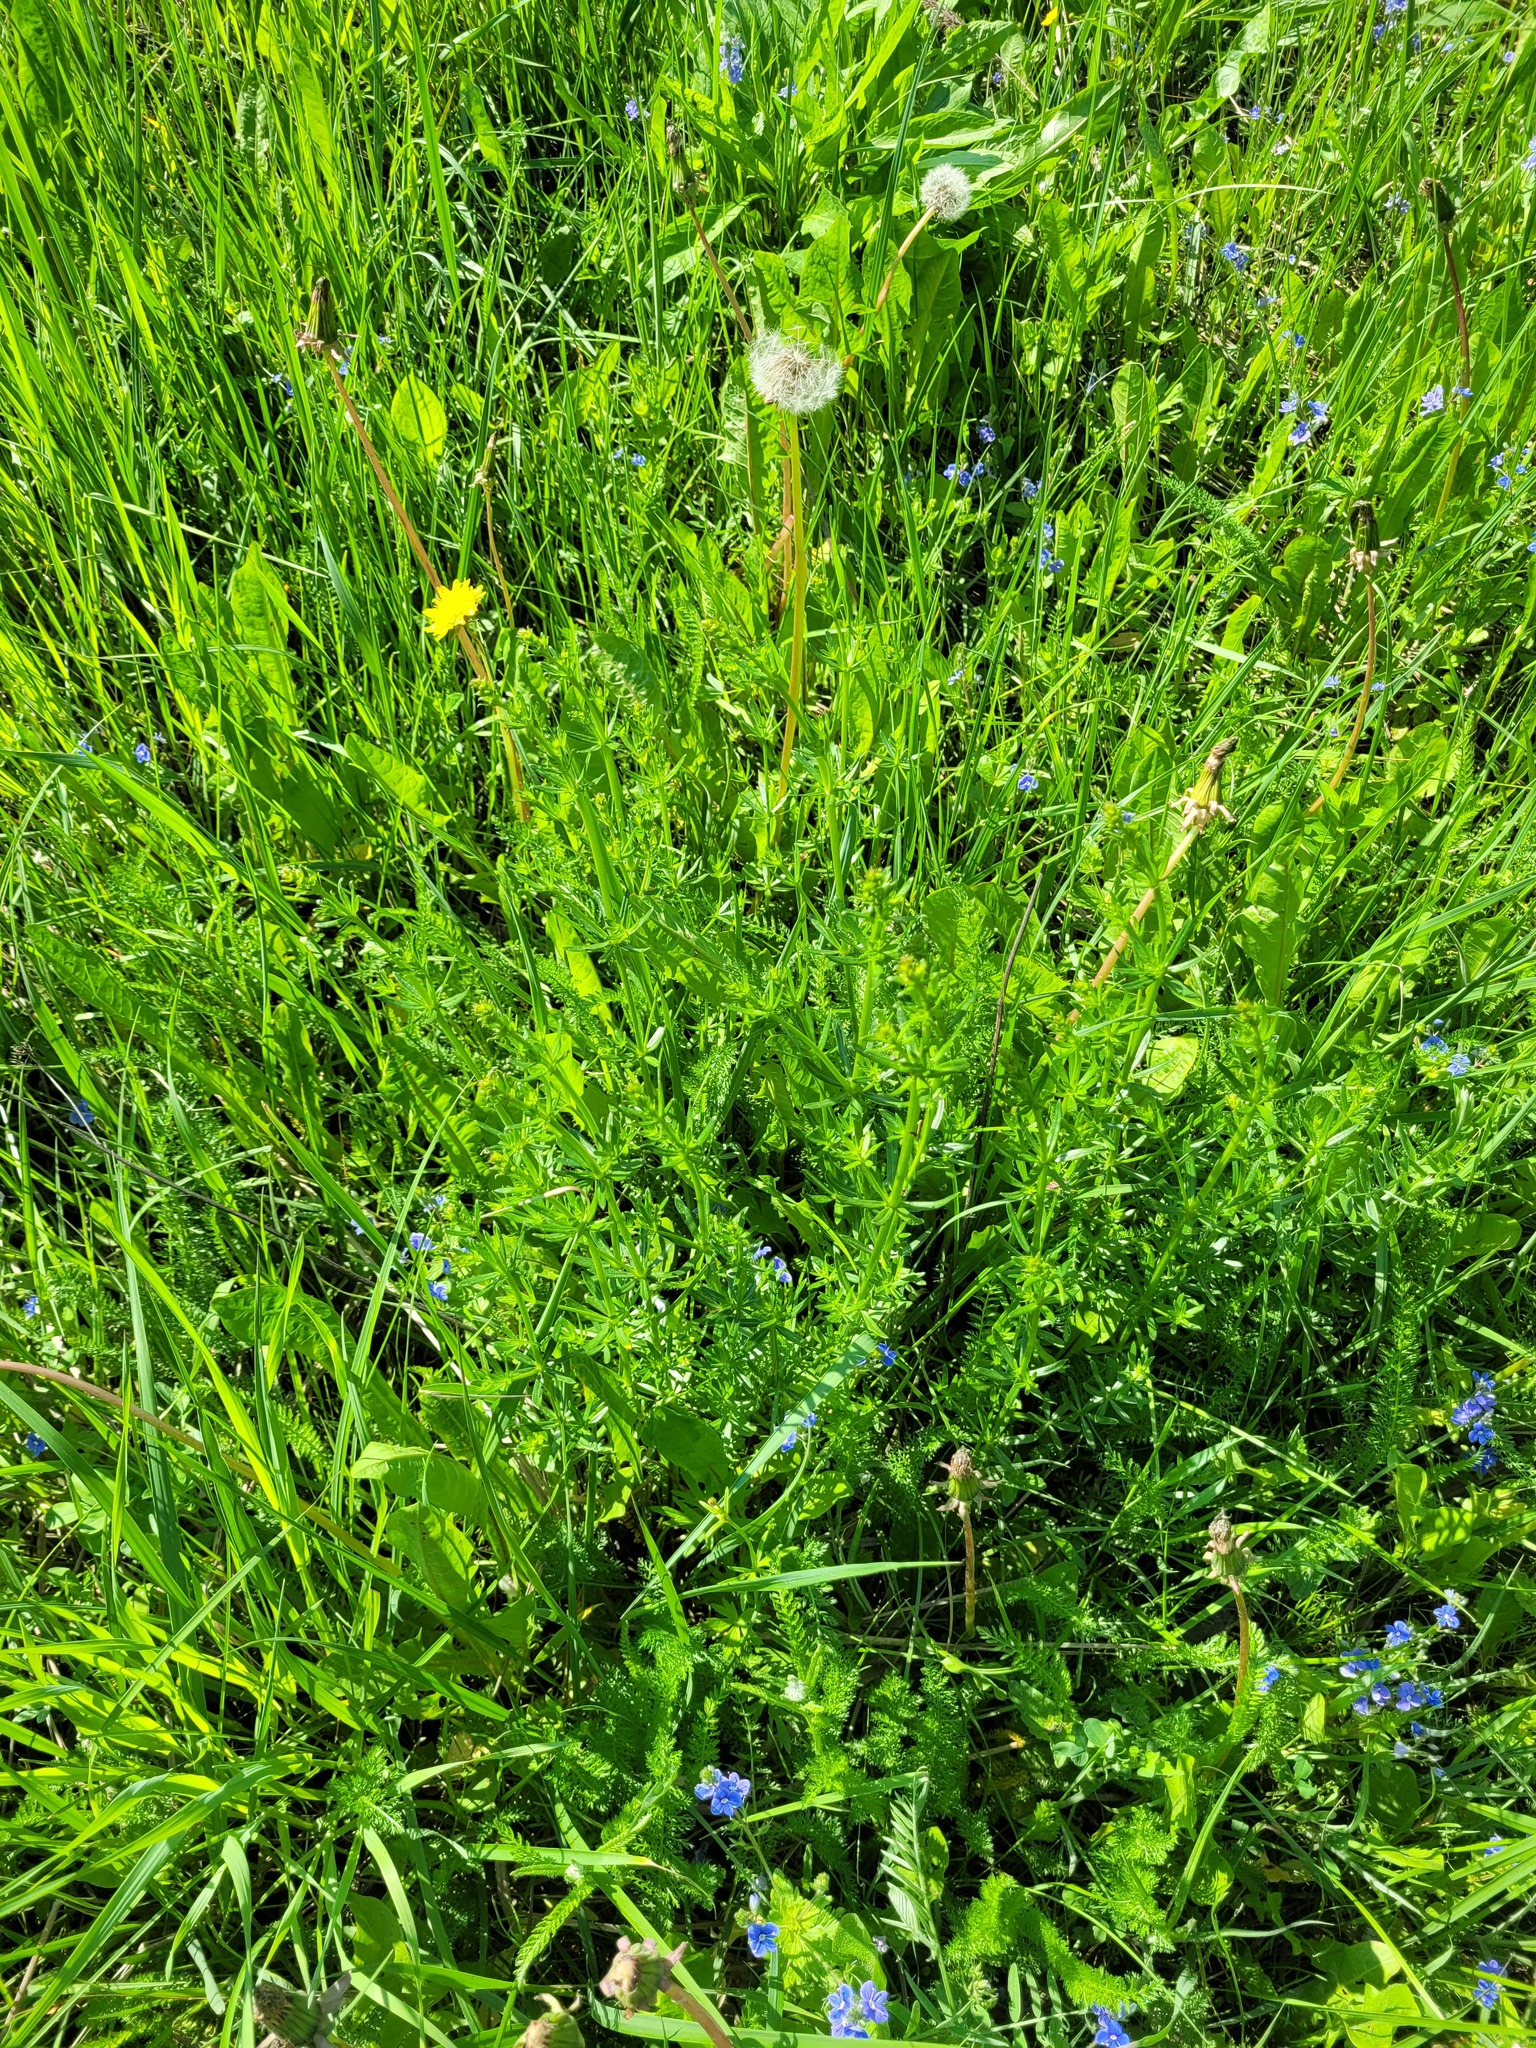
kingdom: Plantae
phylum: Tracheophyta
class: Magnoliopsida
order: Gentianales
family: Rubiaceae
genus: Galium
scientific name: Galium mollugo
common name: Hedge bedstraw
